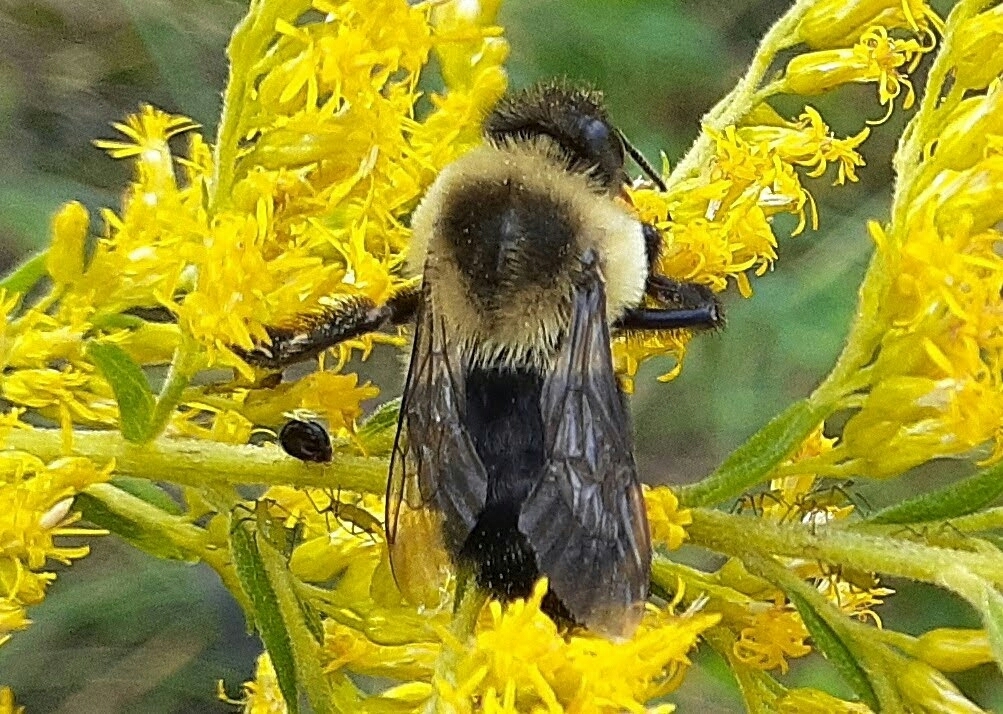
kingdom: Animalia
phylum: Arthropoda
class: Insecta
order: Hymenoptera
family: Apidae
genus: Bombus
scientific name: Bombus impatiens
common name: Common eastern bumble bee
